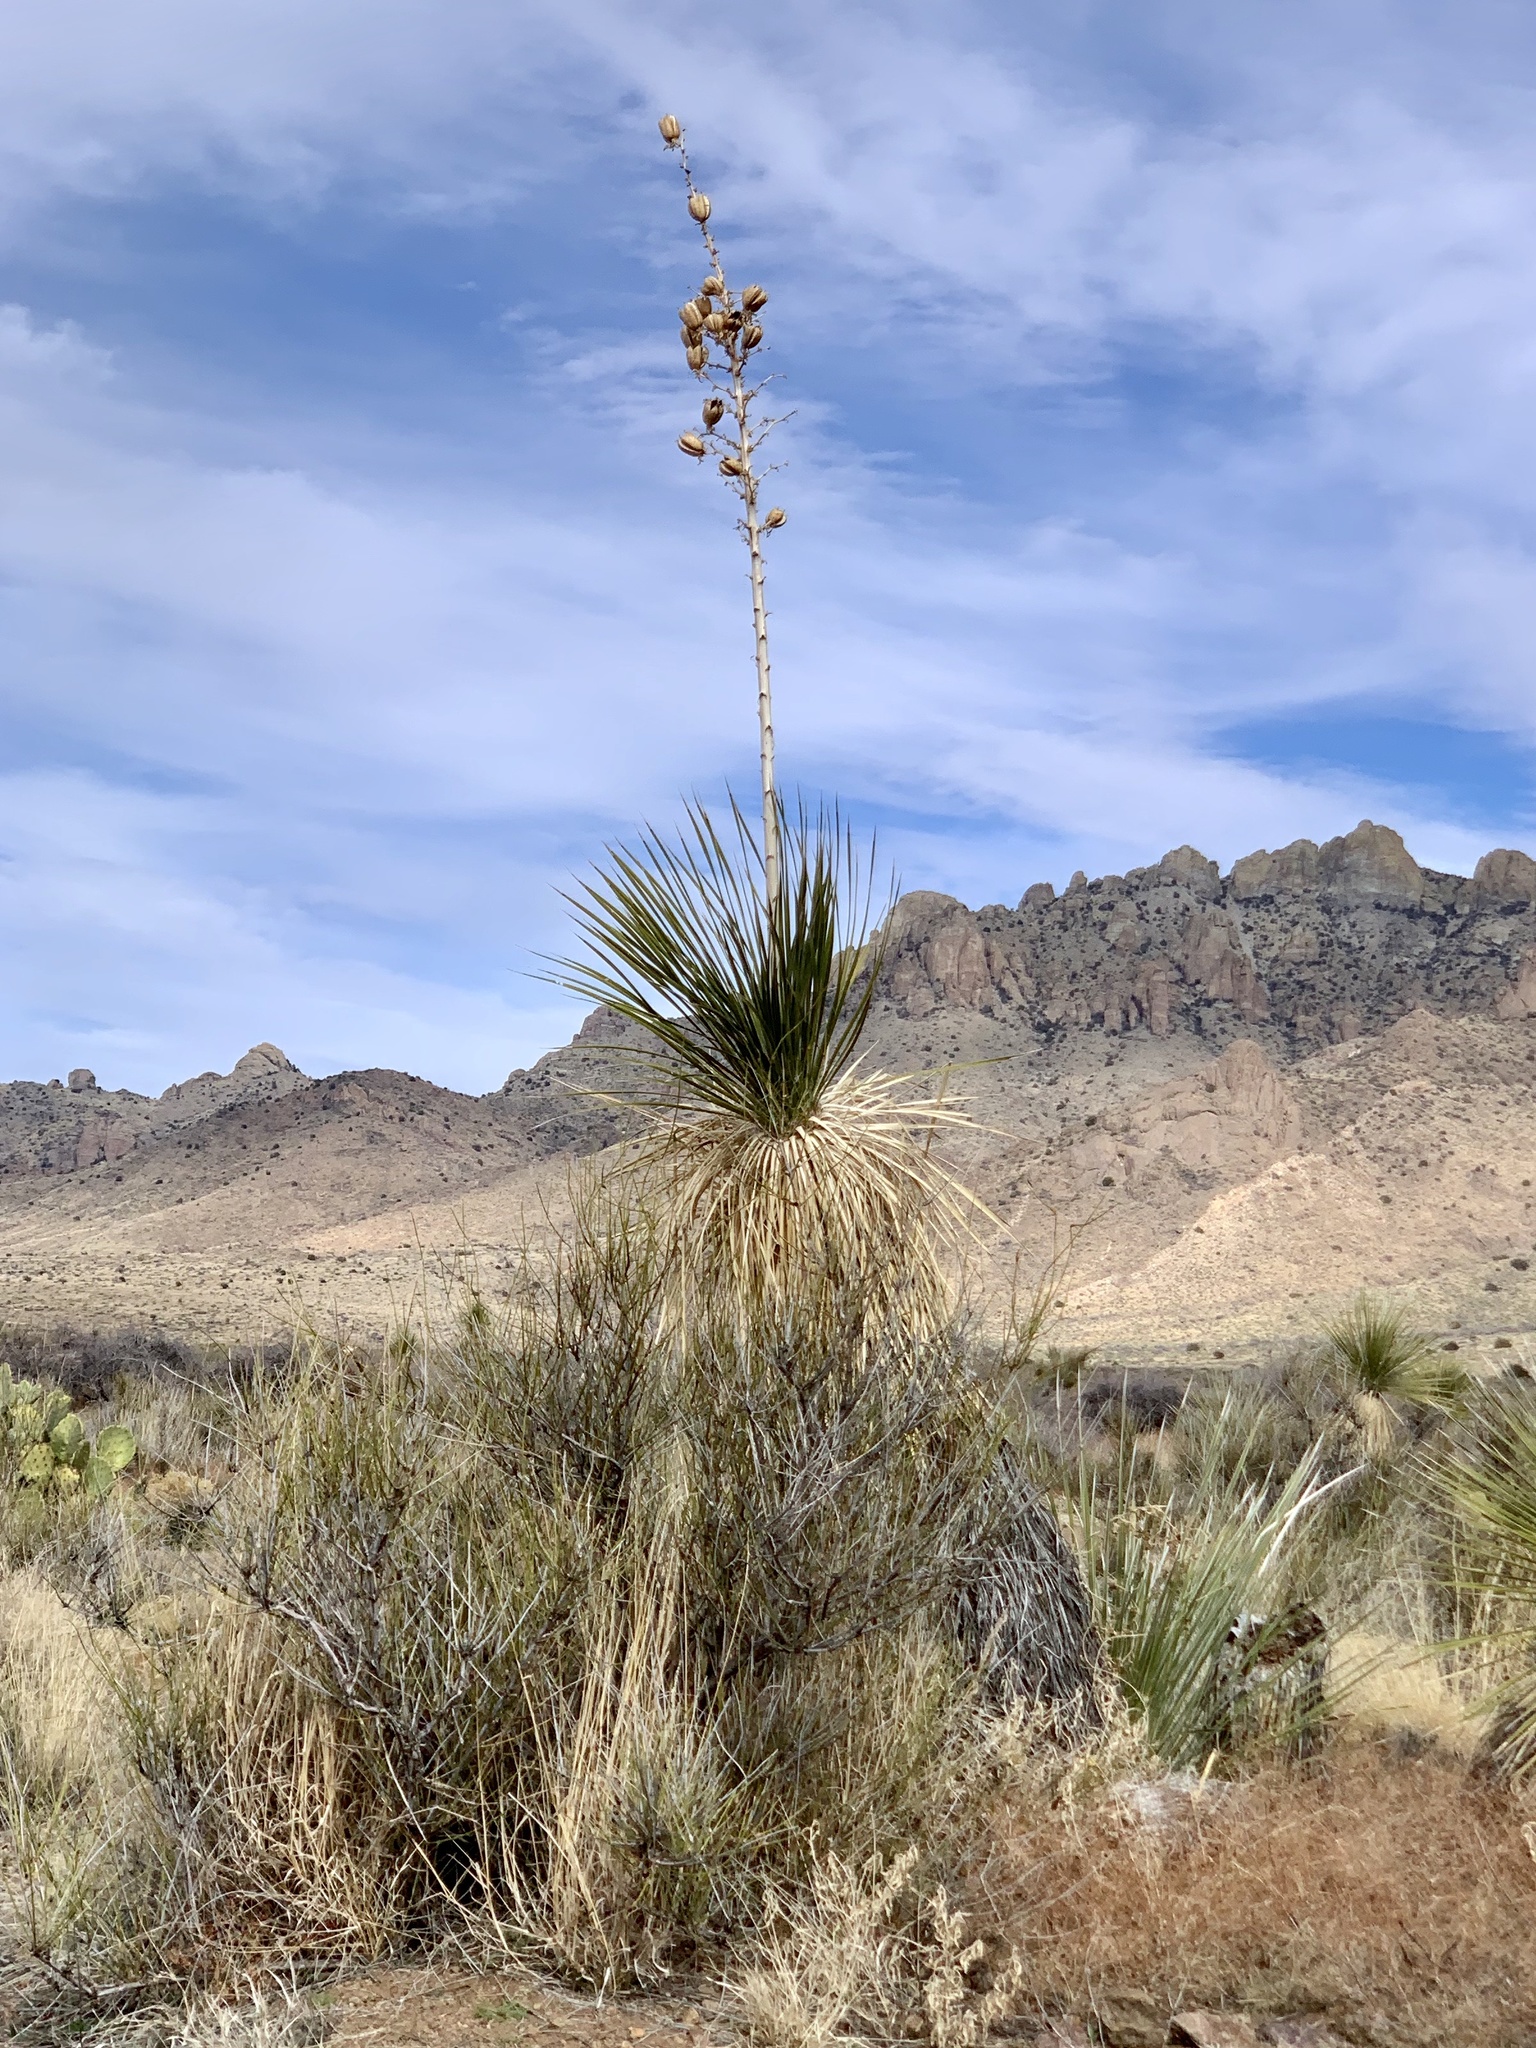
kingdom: Plantae
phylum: Tracheophyta
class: Liliopsida
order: Asparagales
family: Asparagaceae
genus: Yucca
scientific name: Yucca elata
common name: Palmella
